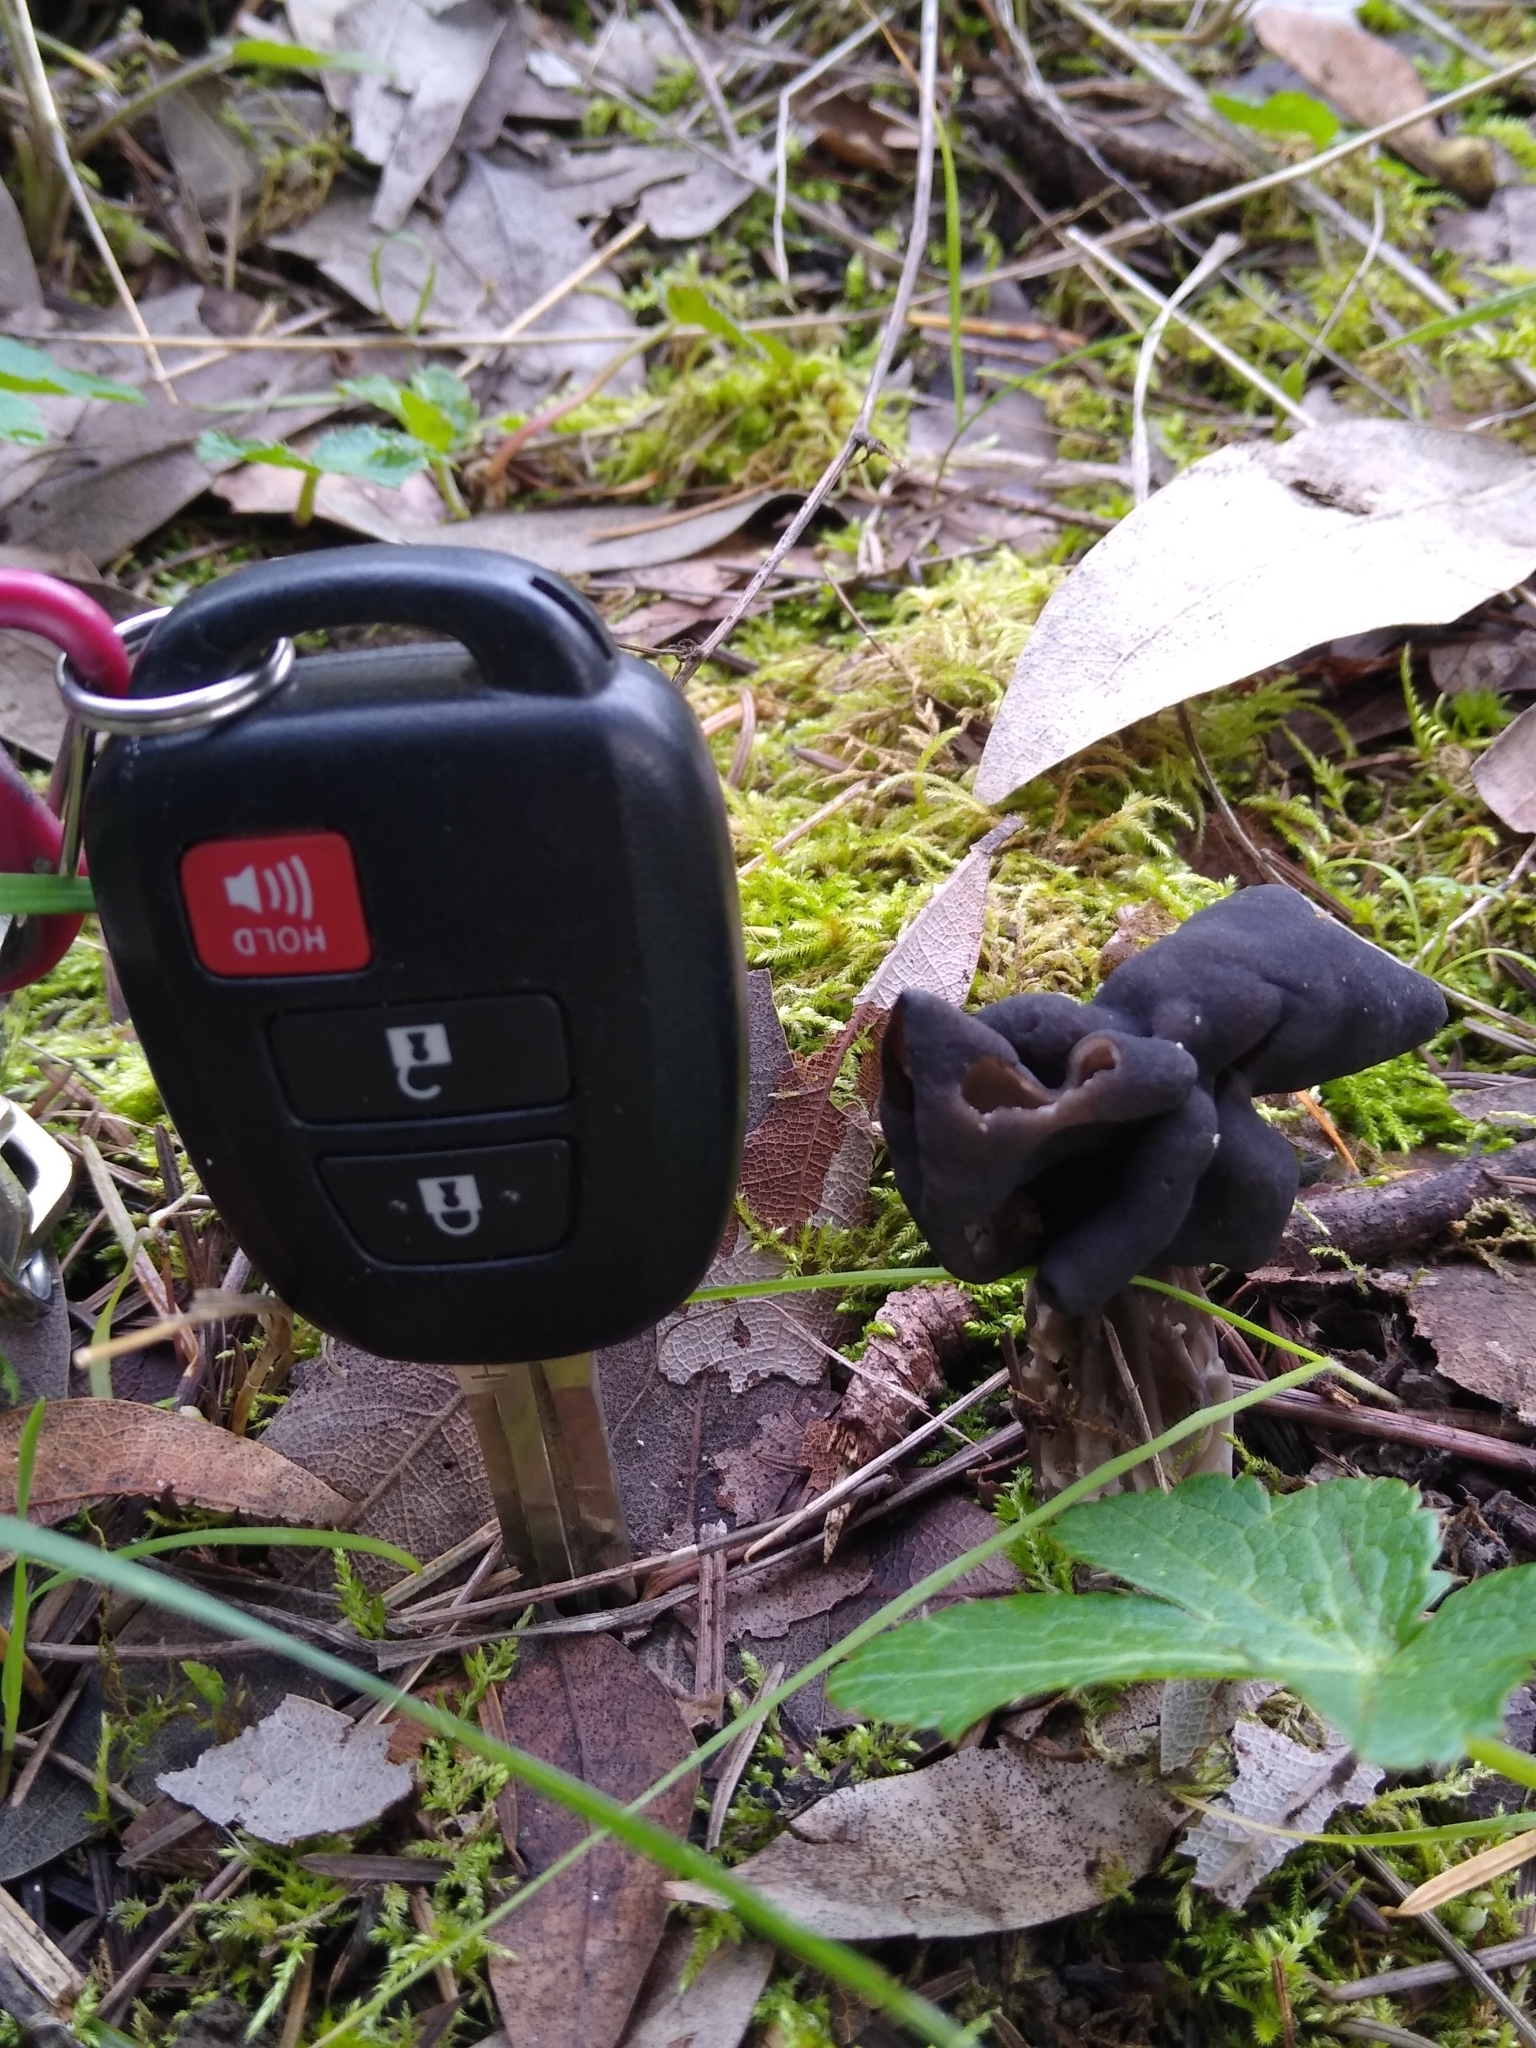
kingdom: Fungi
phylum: Ascomycota
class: Pezizomycetes
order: Pezizales
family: Helvellaceae
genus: Helvella
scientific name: Helvella vespertina
